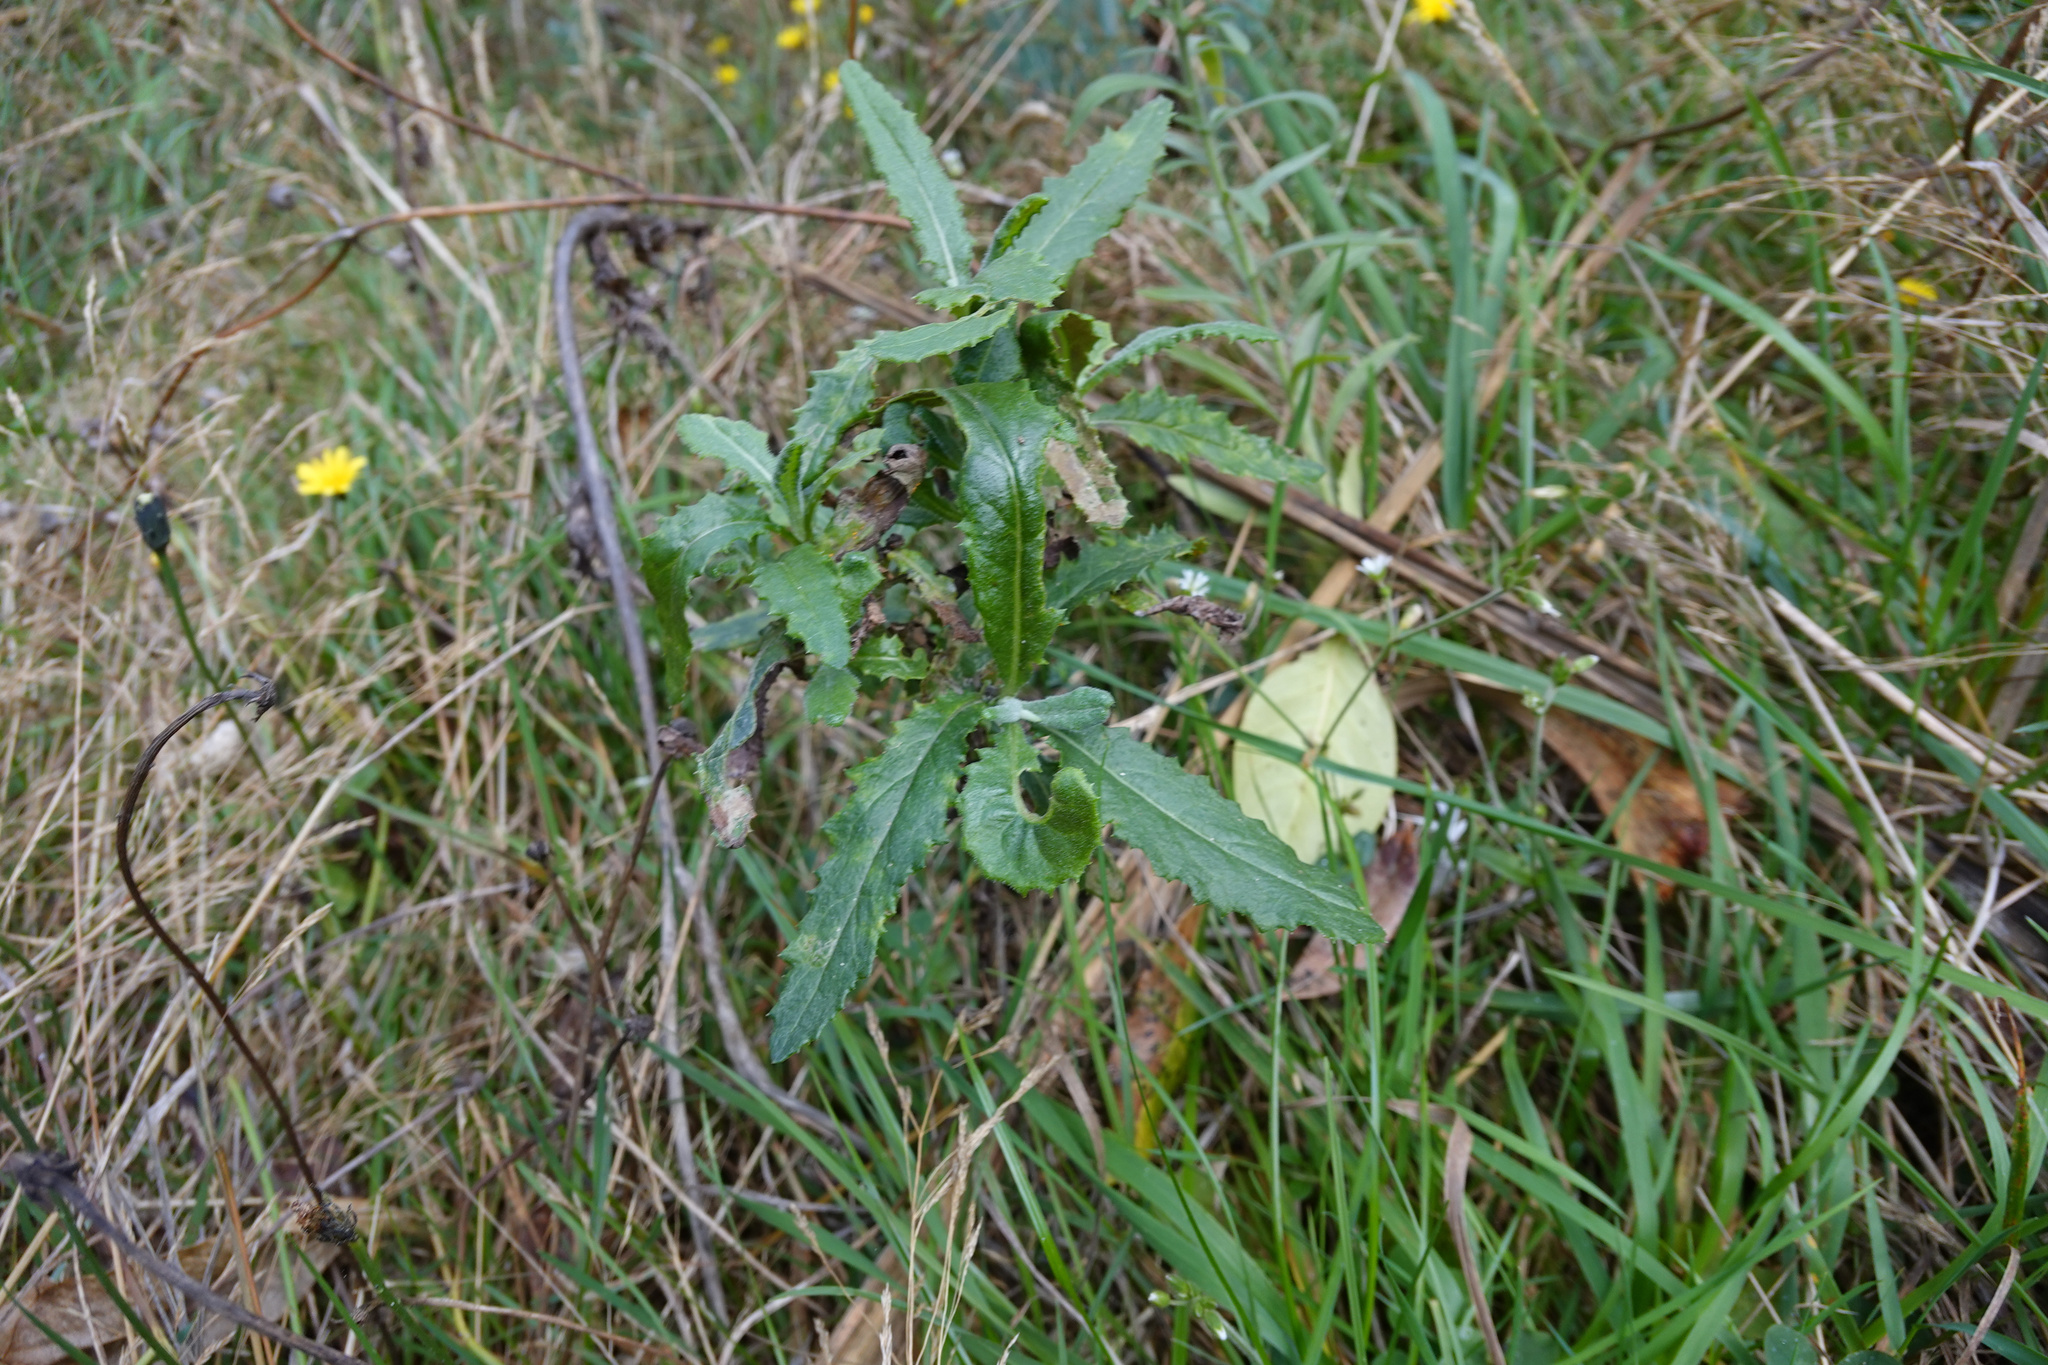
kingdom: Plantae
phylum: Tracheophyta
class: Magnoliopsida
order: Asterales
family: Asteraceae
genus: Senecio
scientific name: Senecio minimus
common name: Toothed fireweed
